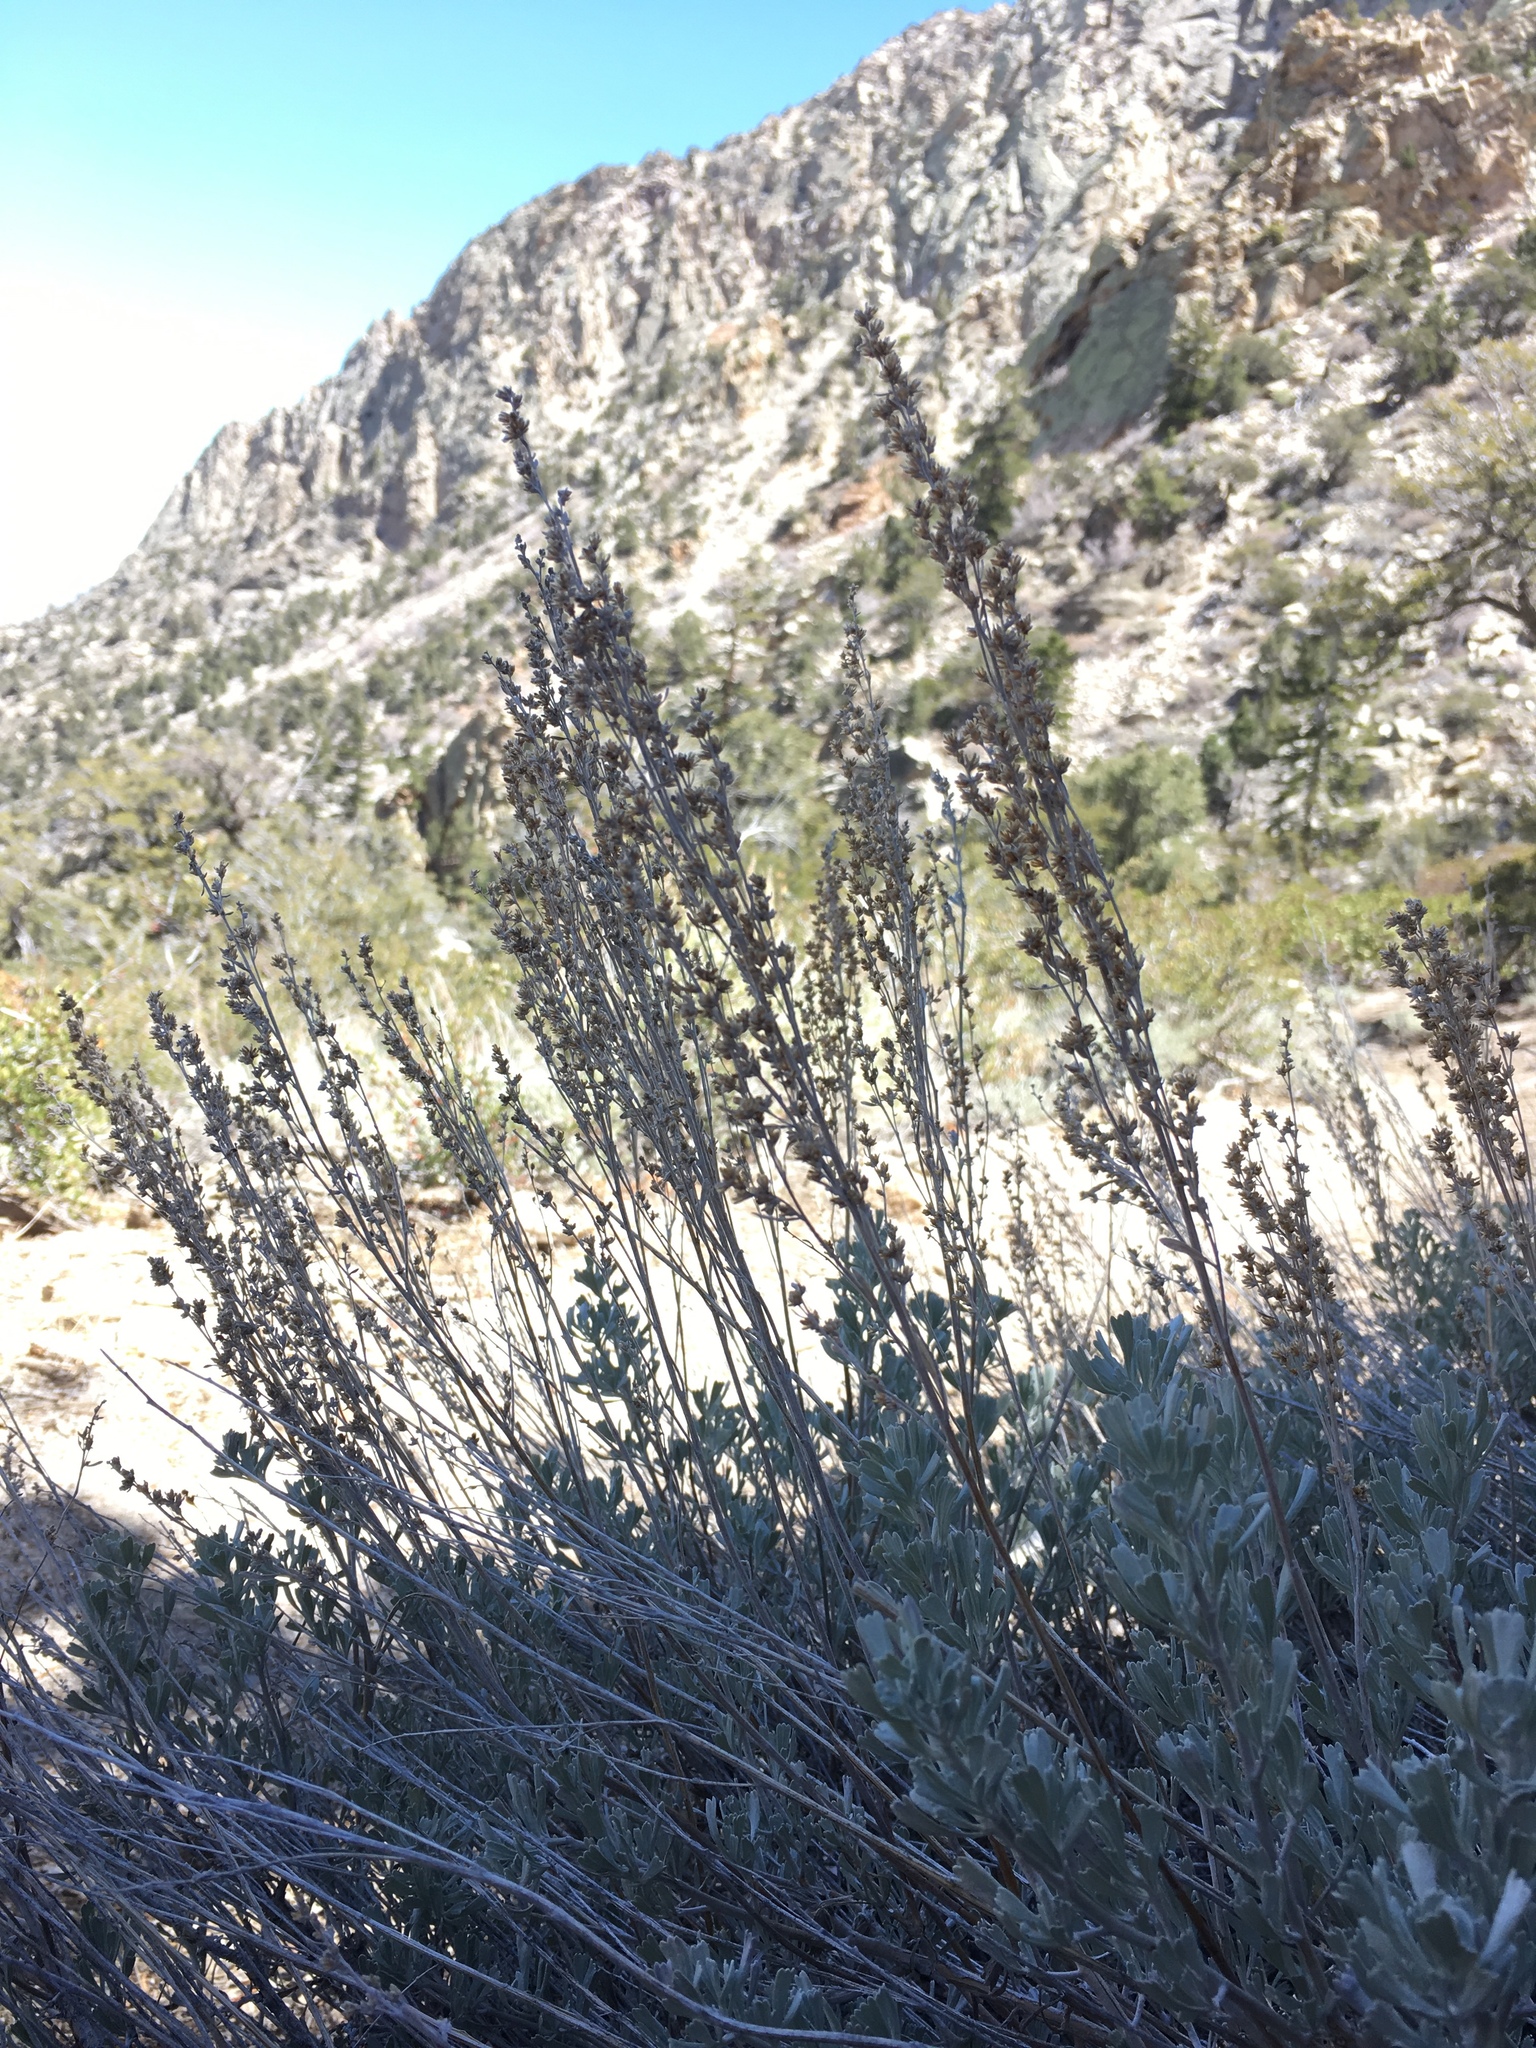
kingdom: Plantae
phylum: Tracheophyta
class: Magnoliopsida
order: Asterales
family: Asteraceae
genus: Artemisia
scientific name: Artemisia tridentata
